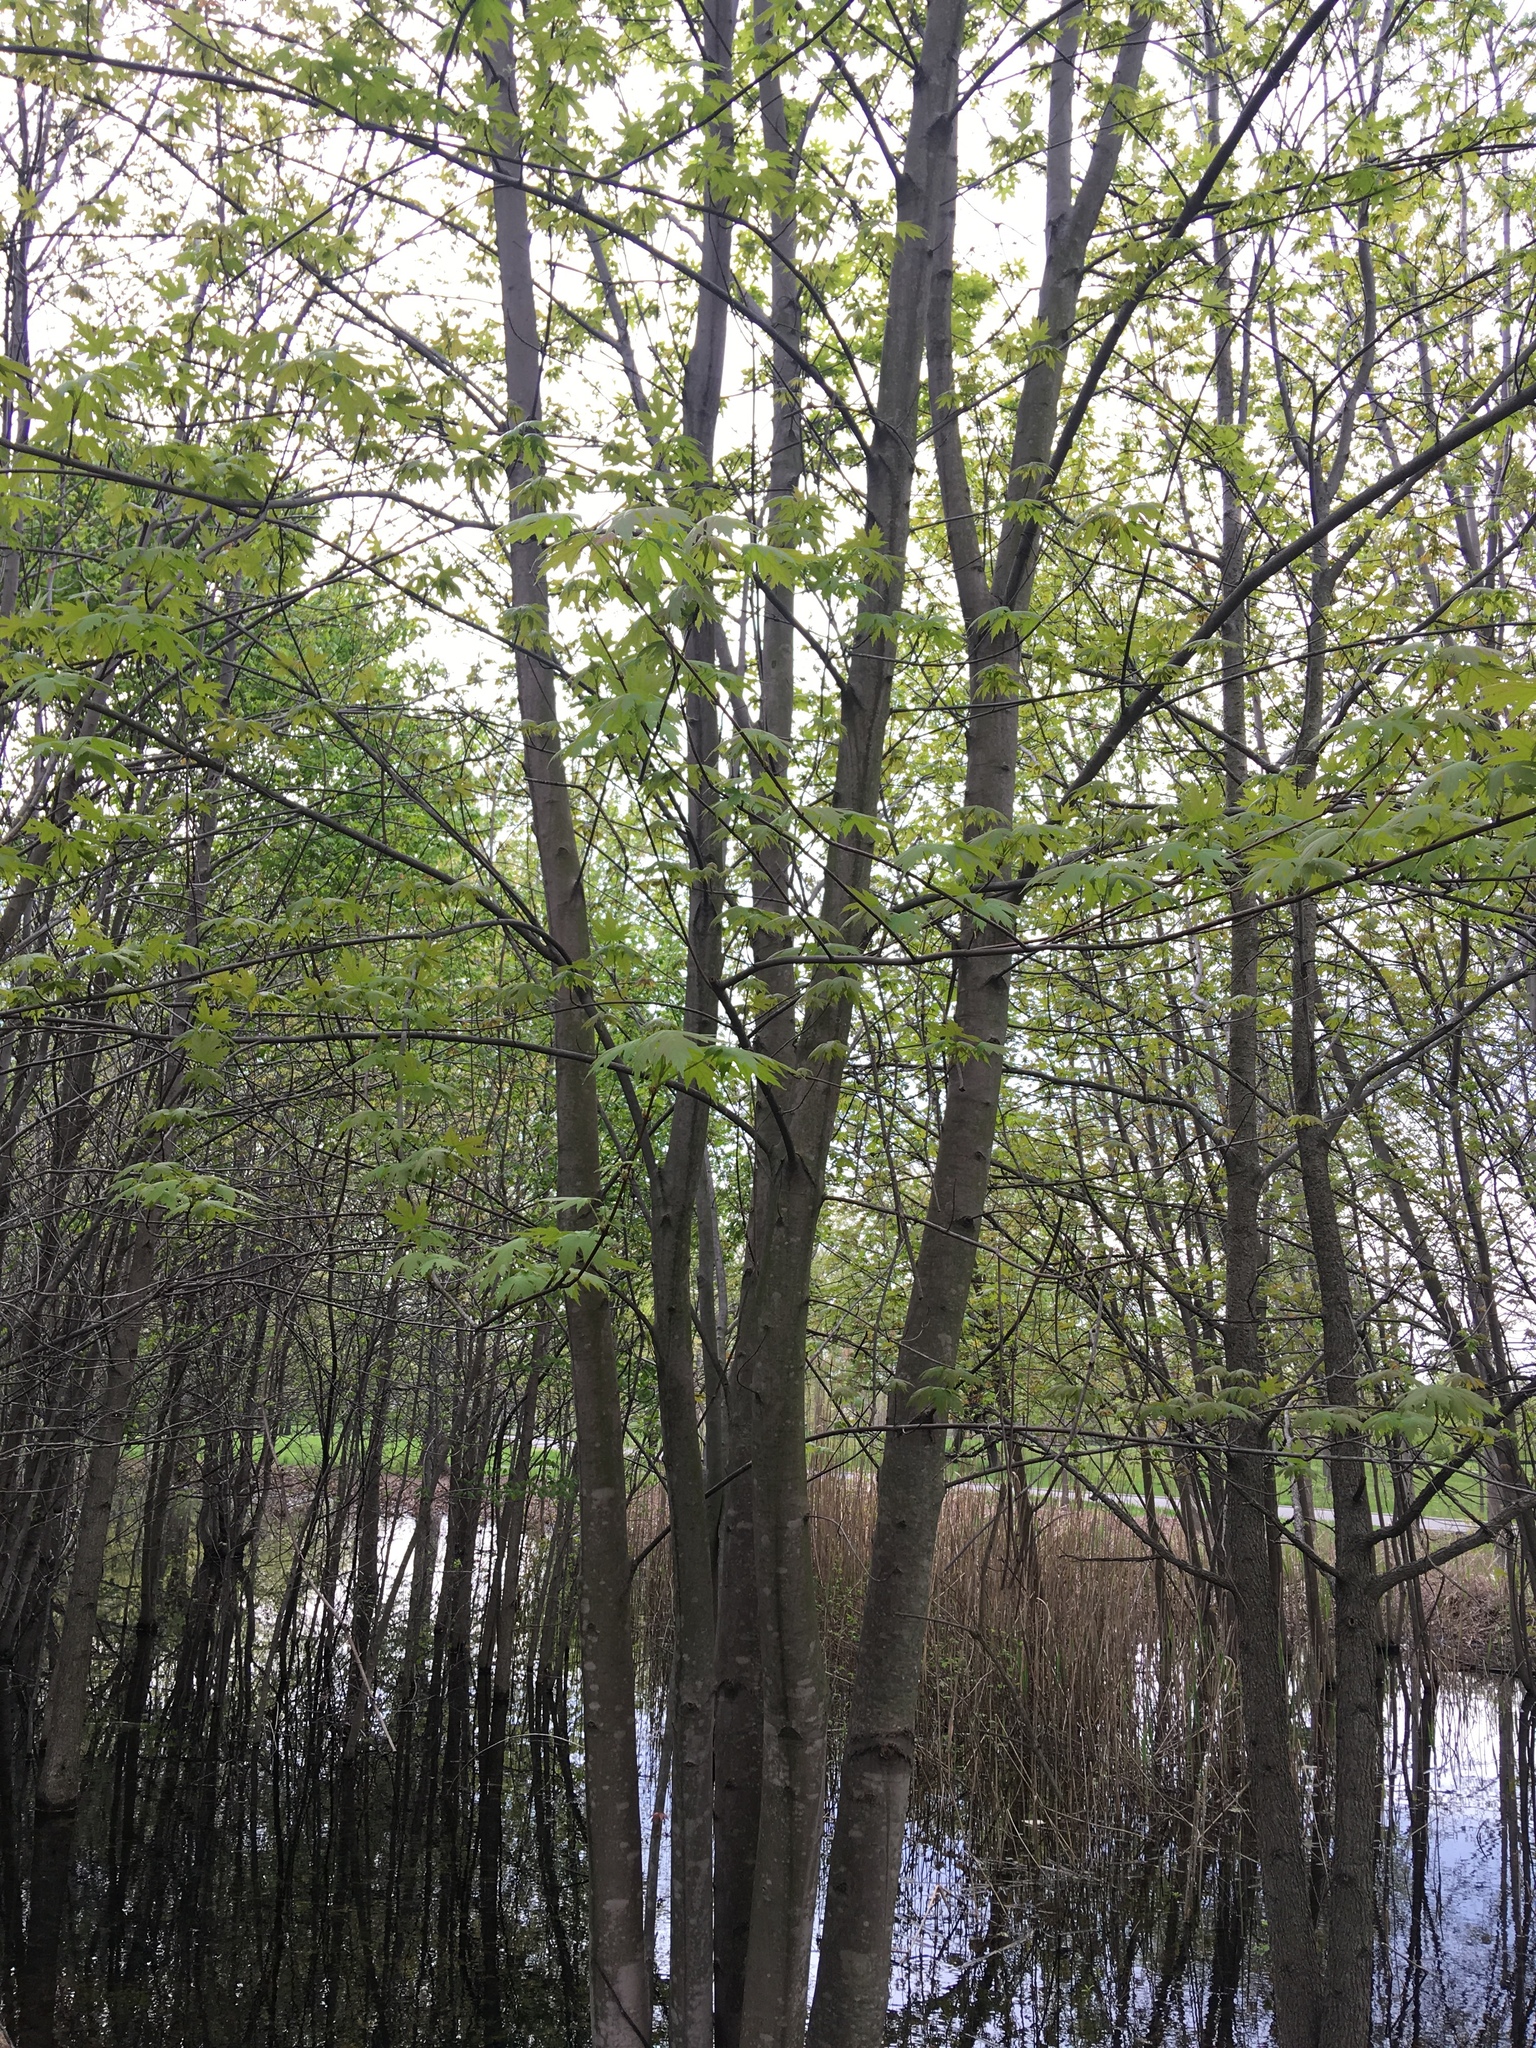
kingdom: Plantae
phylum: Tracheophyta
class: Magnoliopsida
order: Sapindales
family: Sapindaceae
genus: Acer
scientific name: Acer saccharinum
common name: Silver maple
